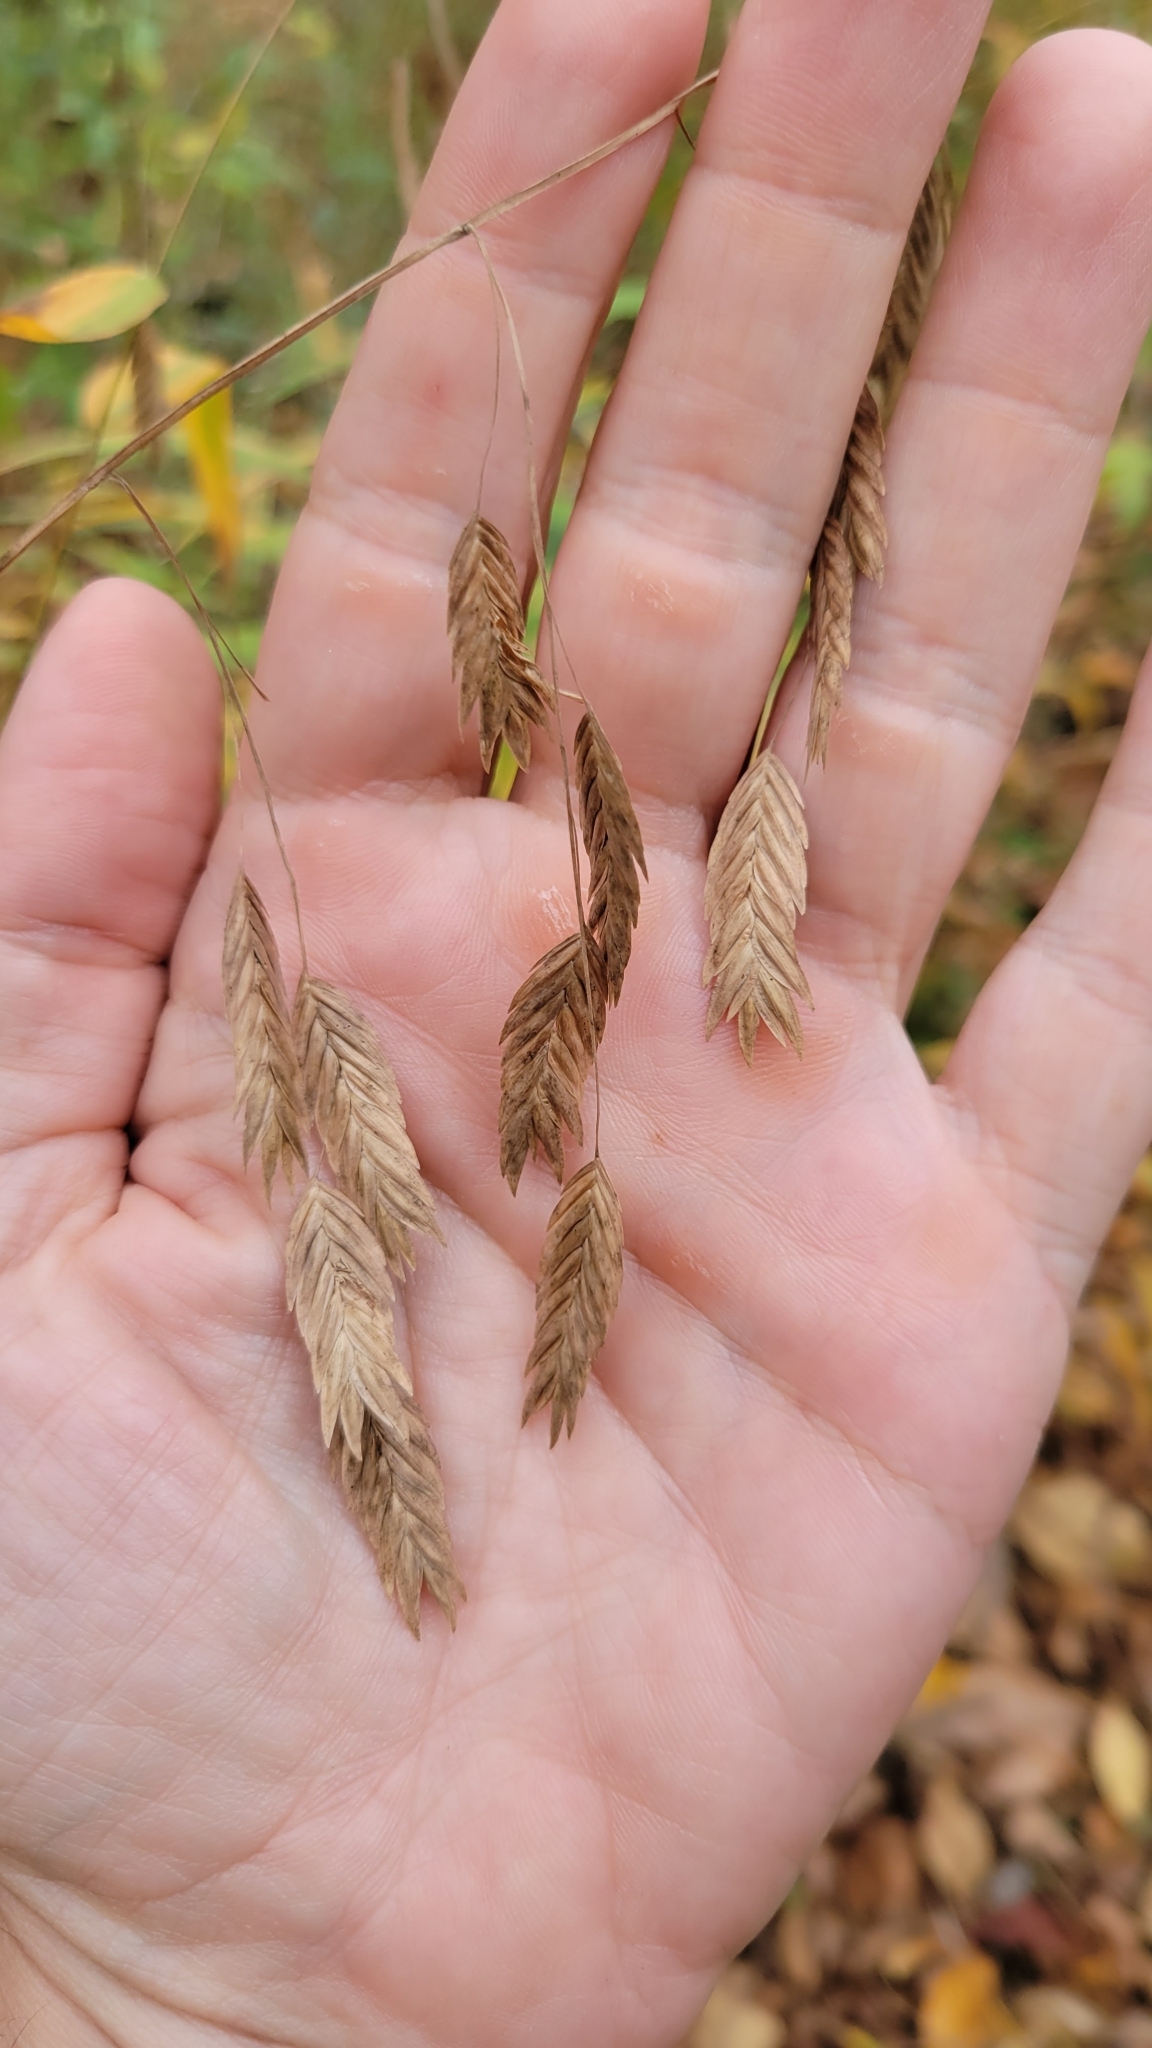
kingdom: Plantae
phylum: Tracheophyta
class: Liliopsida
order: Poales
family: Poaceae
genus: Chasmanthium
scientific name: Chasmanthium latifolium
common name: Broad-leaved chasmanthium
